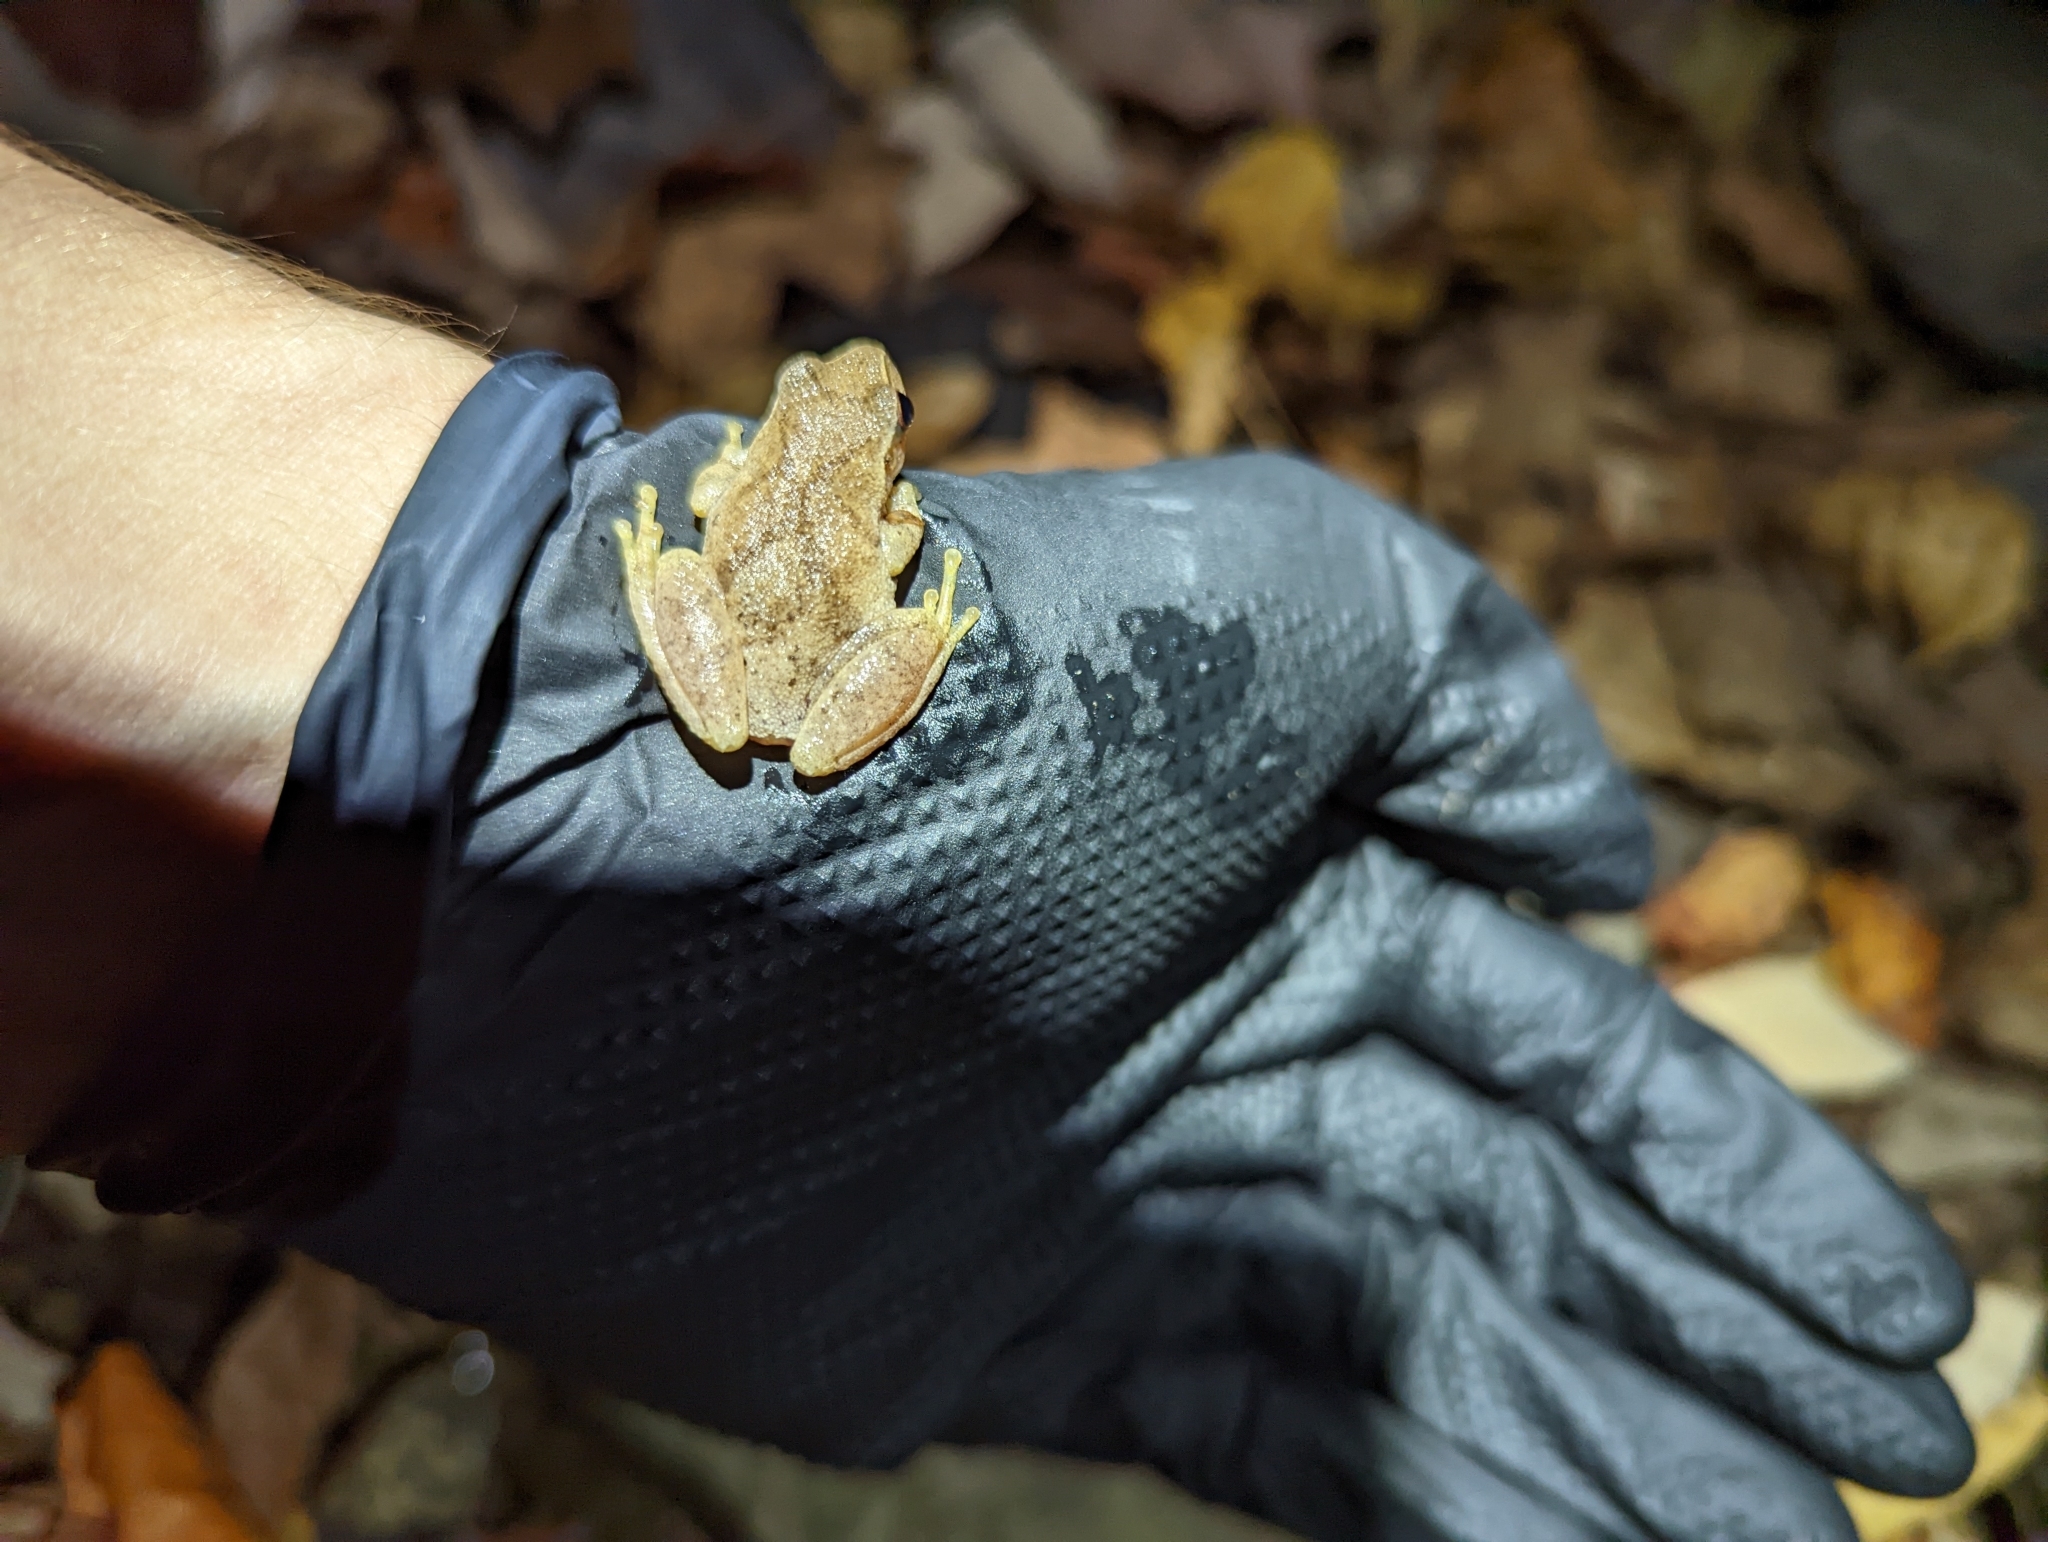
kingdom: Animalia
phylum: Chordata
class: Amphibia
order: Anura
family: Hylidae
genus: Pseudacris
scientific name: Pseudacris crucifer
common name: Spring peeper
